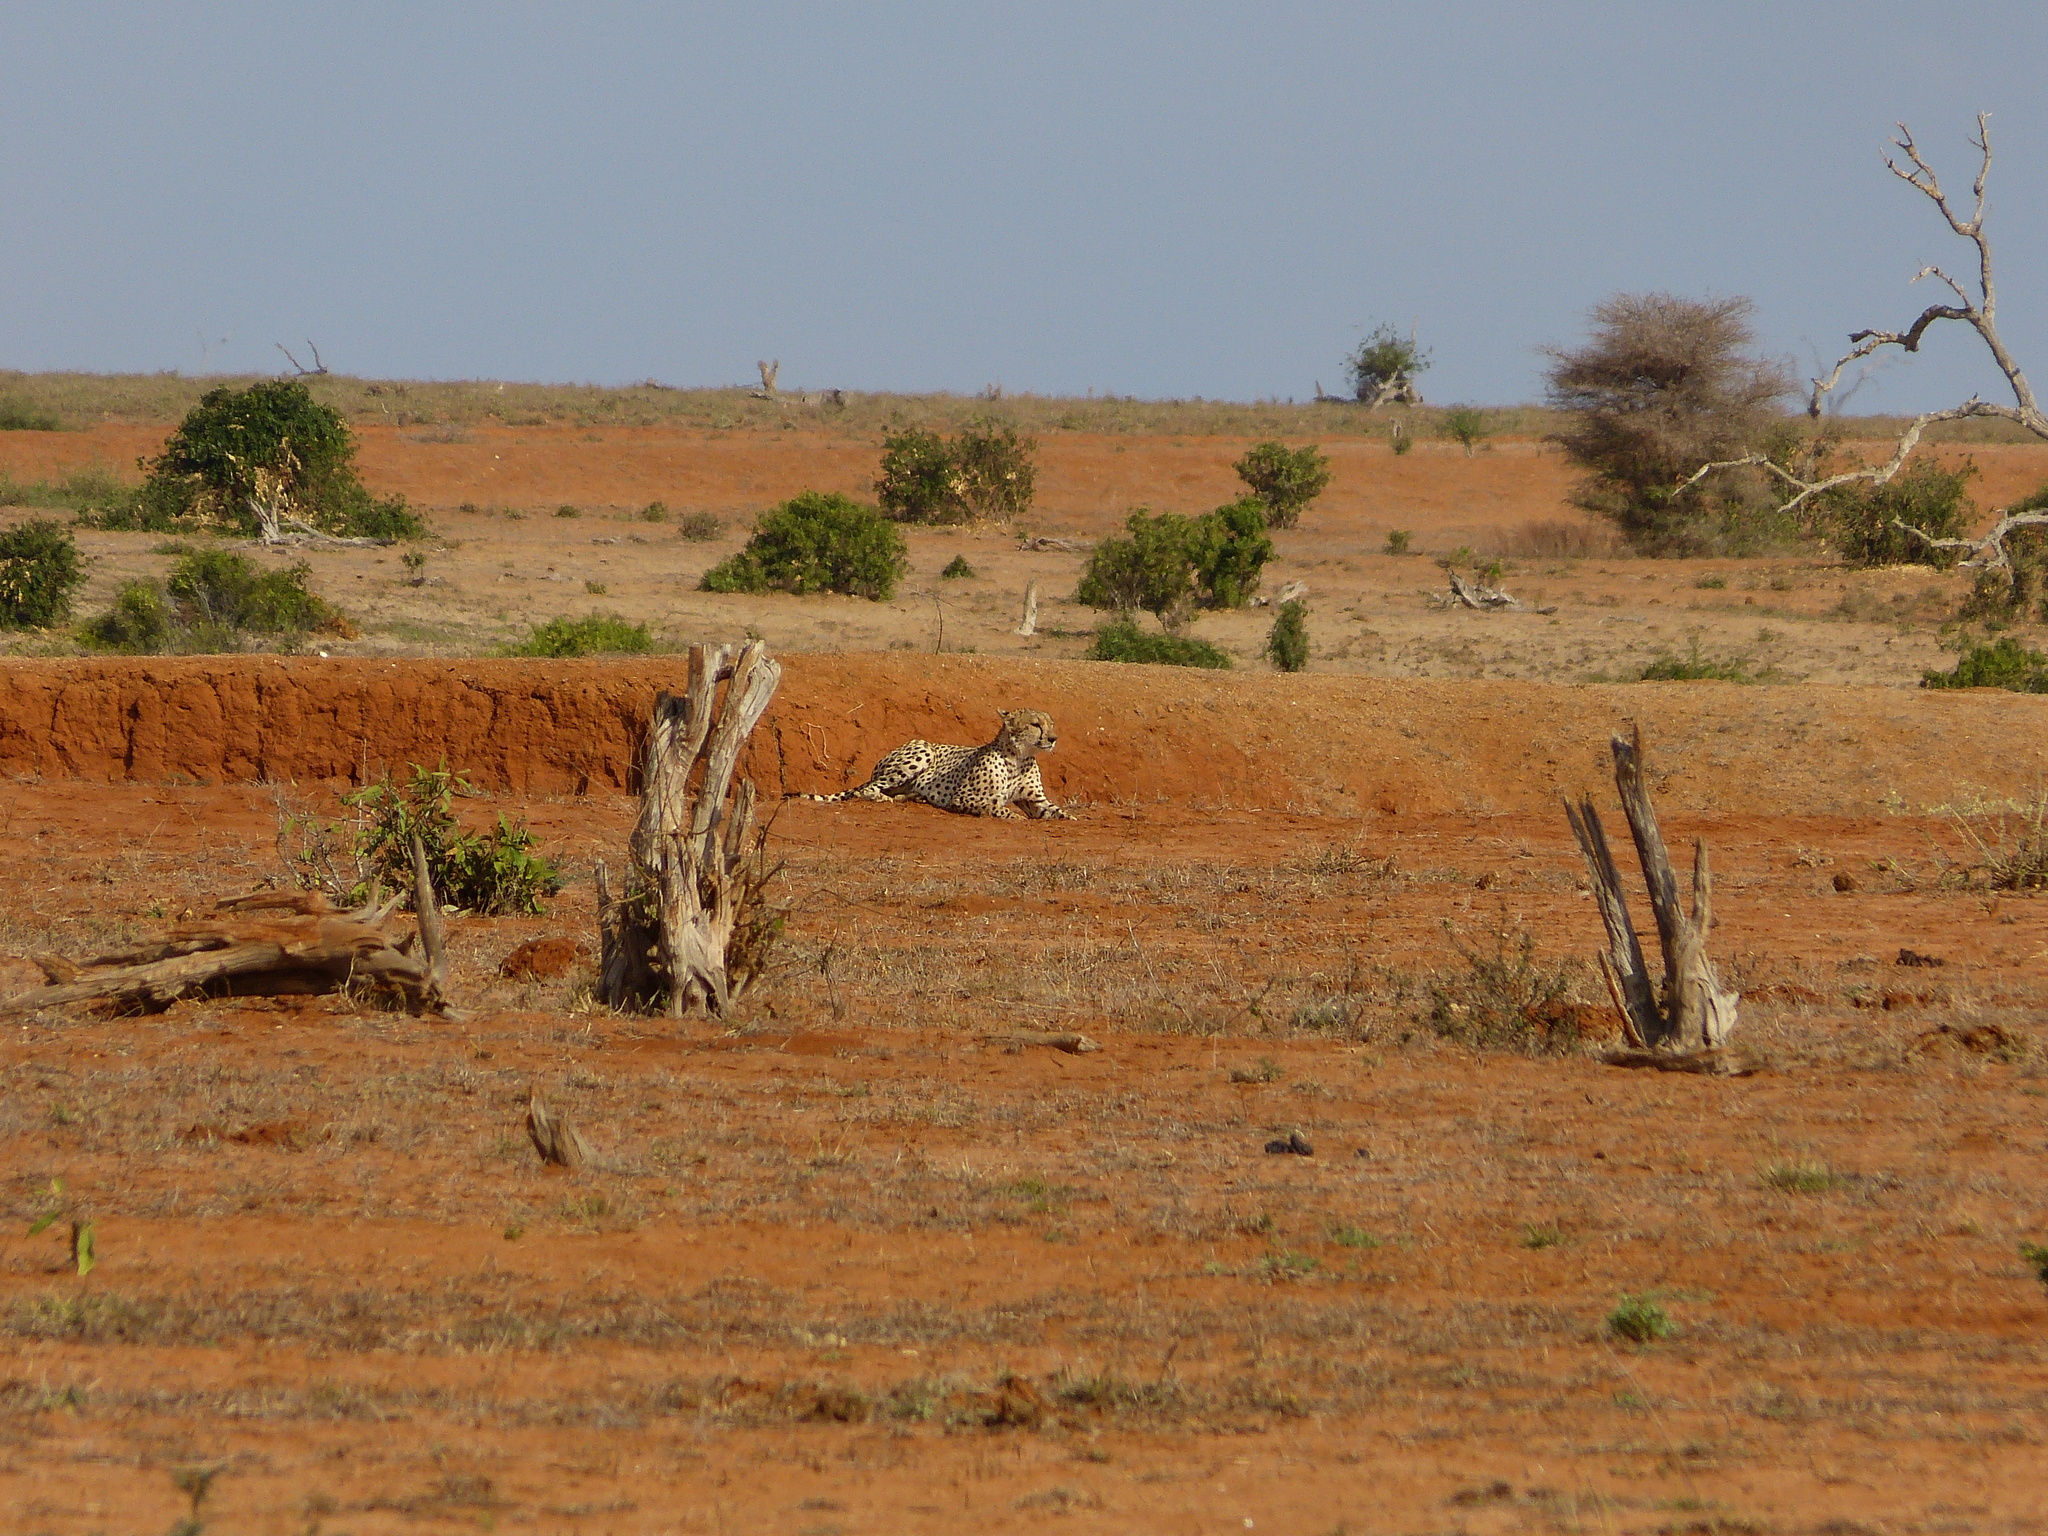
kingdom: Animalia
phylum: Chordata
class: Mammalia
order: Carnivora
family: Felidae
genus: Acinonyx
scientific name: Acinonyx jubatus
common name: Cheetah
